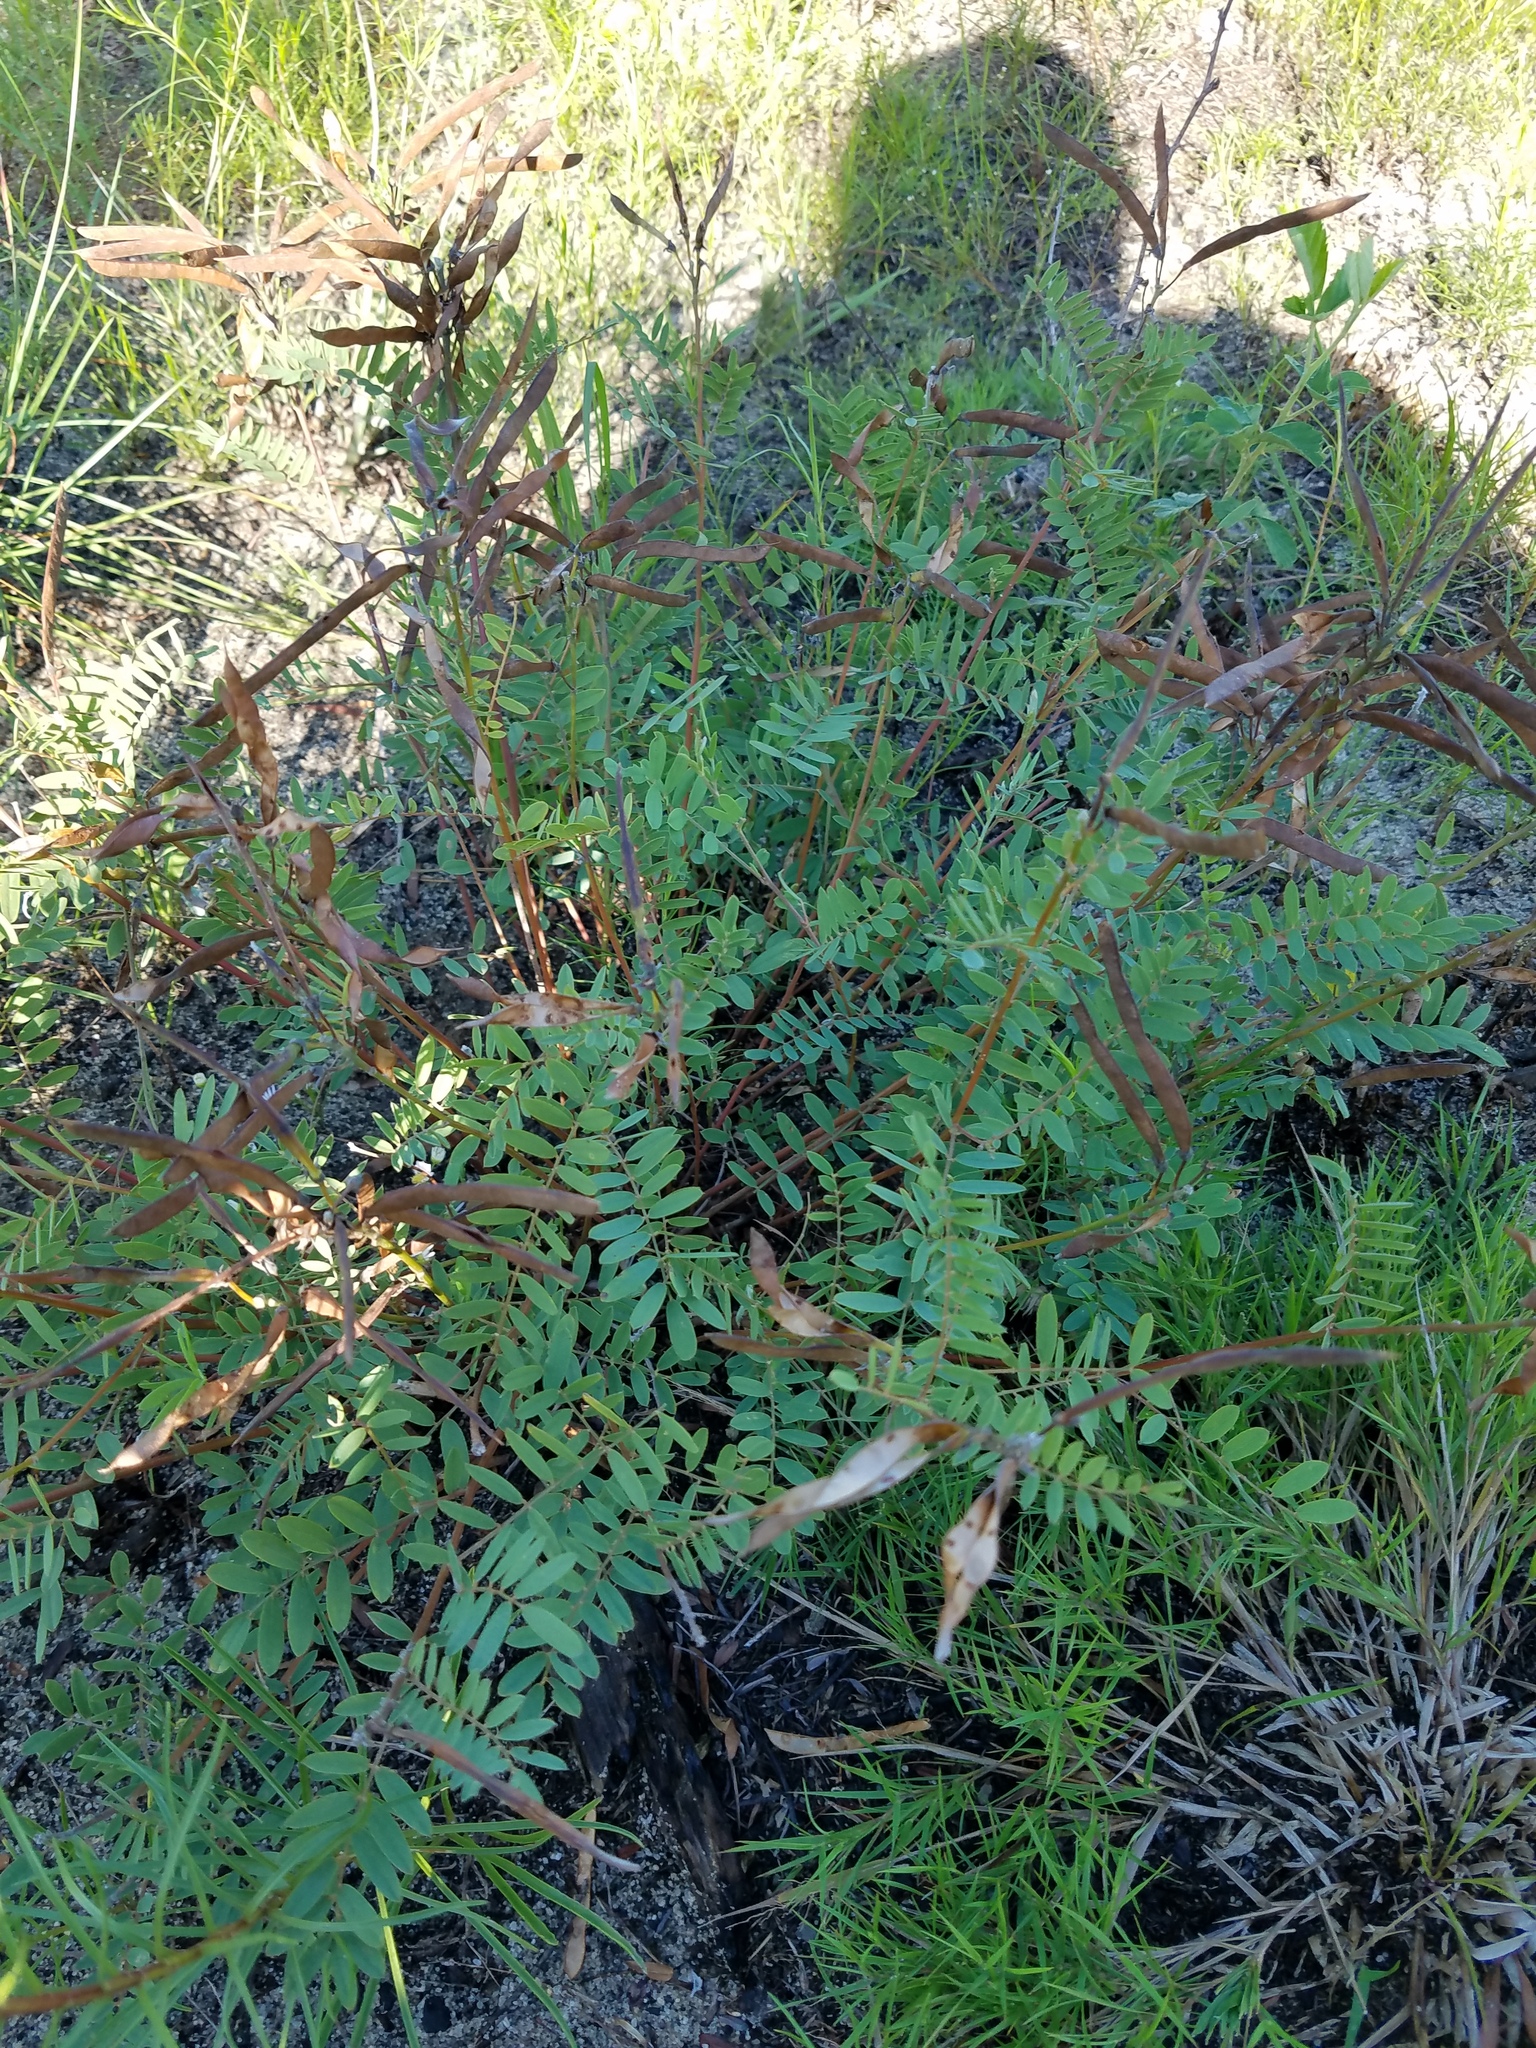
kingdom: Plantae
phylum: Tracheophyta
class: Magnoliopsida
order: Fabales
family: Fabaceae
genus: Tephrosia
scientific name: Tephrosia virginiana
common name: Rabbit-pea
